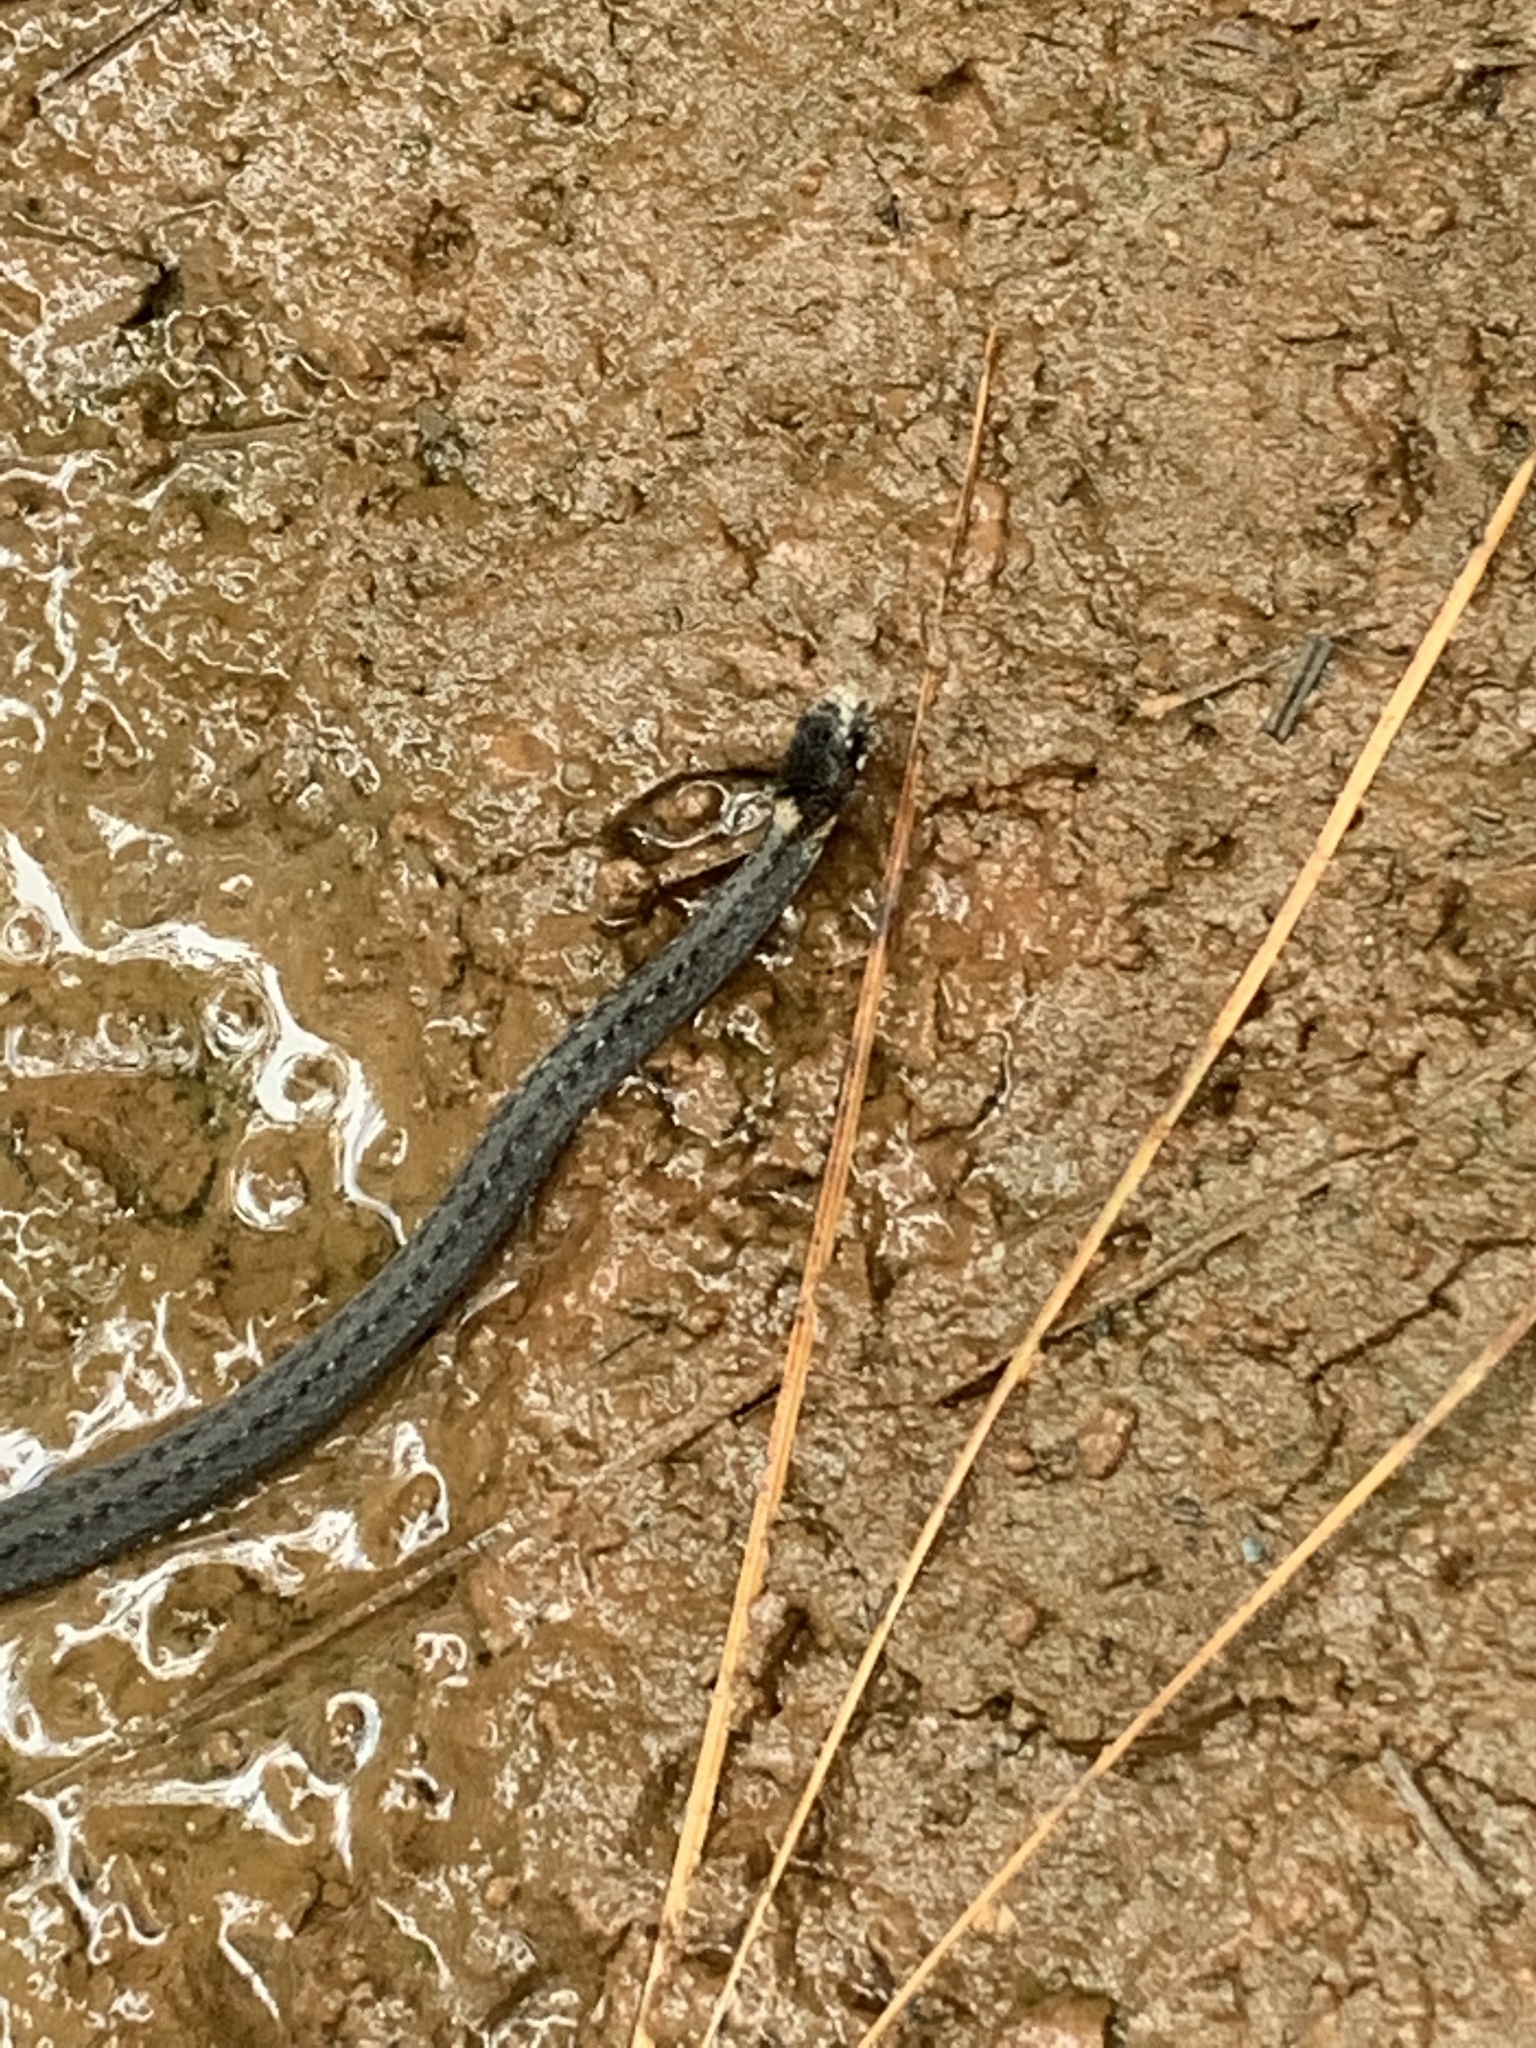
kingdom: Animalia
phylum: Chordata
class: Squamata
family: Colubridae
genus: Storeria
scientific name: Storeria occipitomaculata
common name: Redbelly snake
